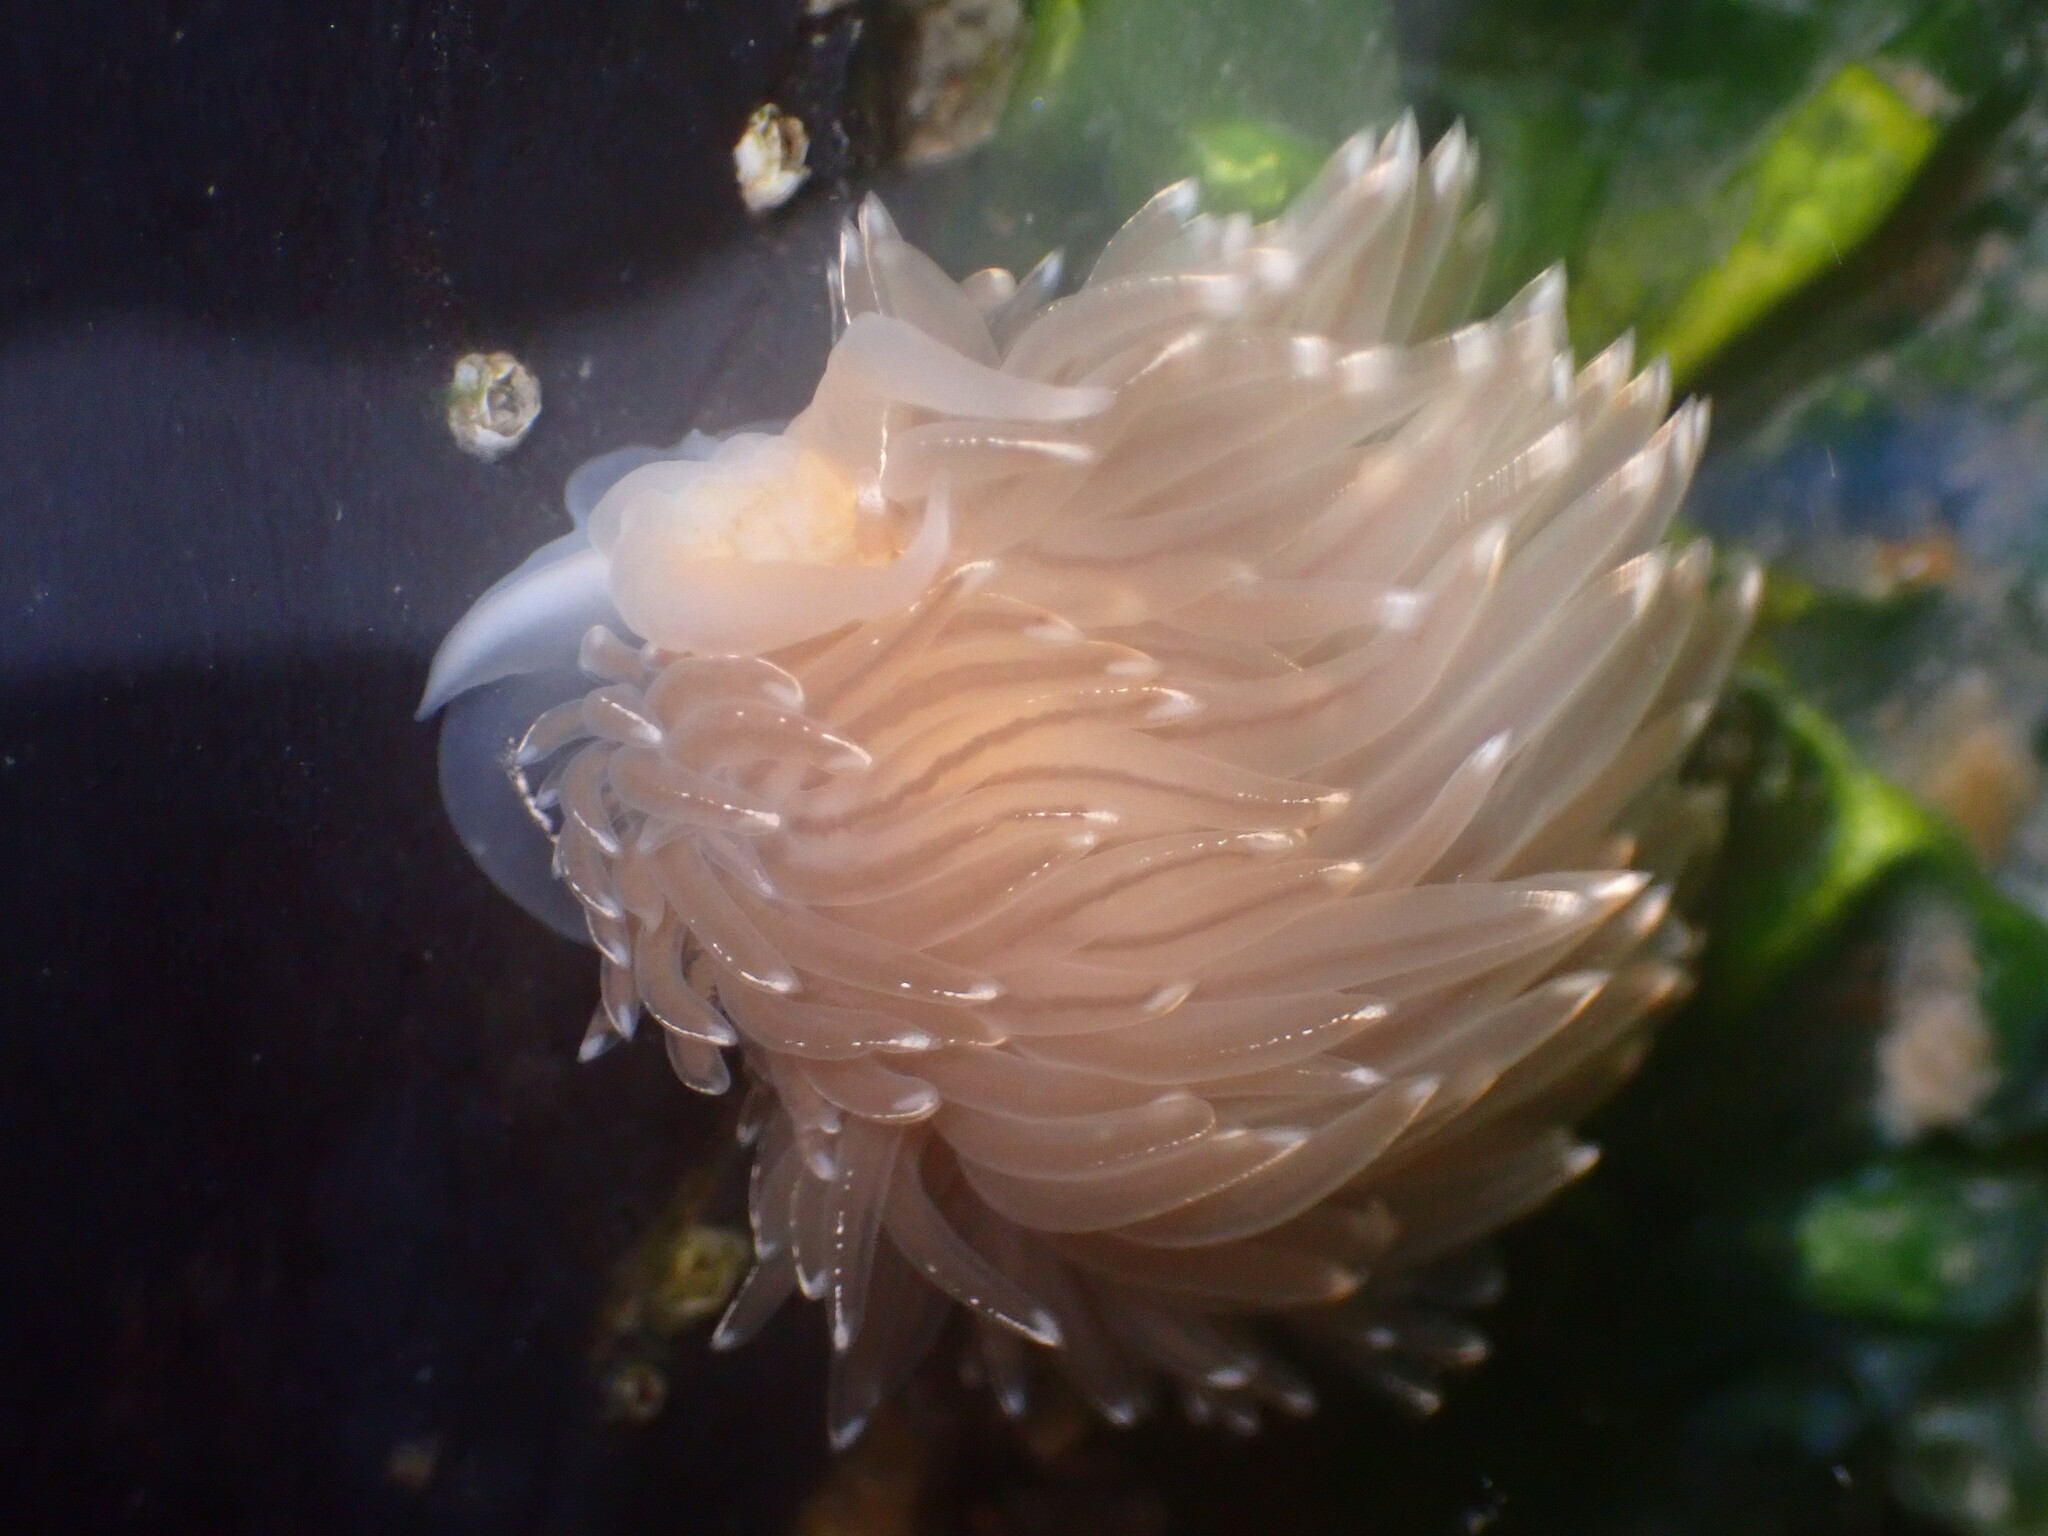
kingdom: Animalia
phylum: Mollusca
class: Gastropoda
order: Nudibranchia
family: Myrrhinidae
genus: Hermissenda
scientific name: Hermissenda crassicornis
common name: Hermissenda
